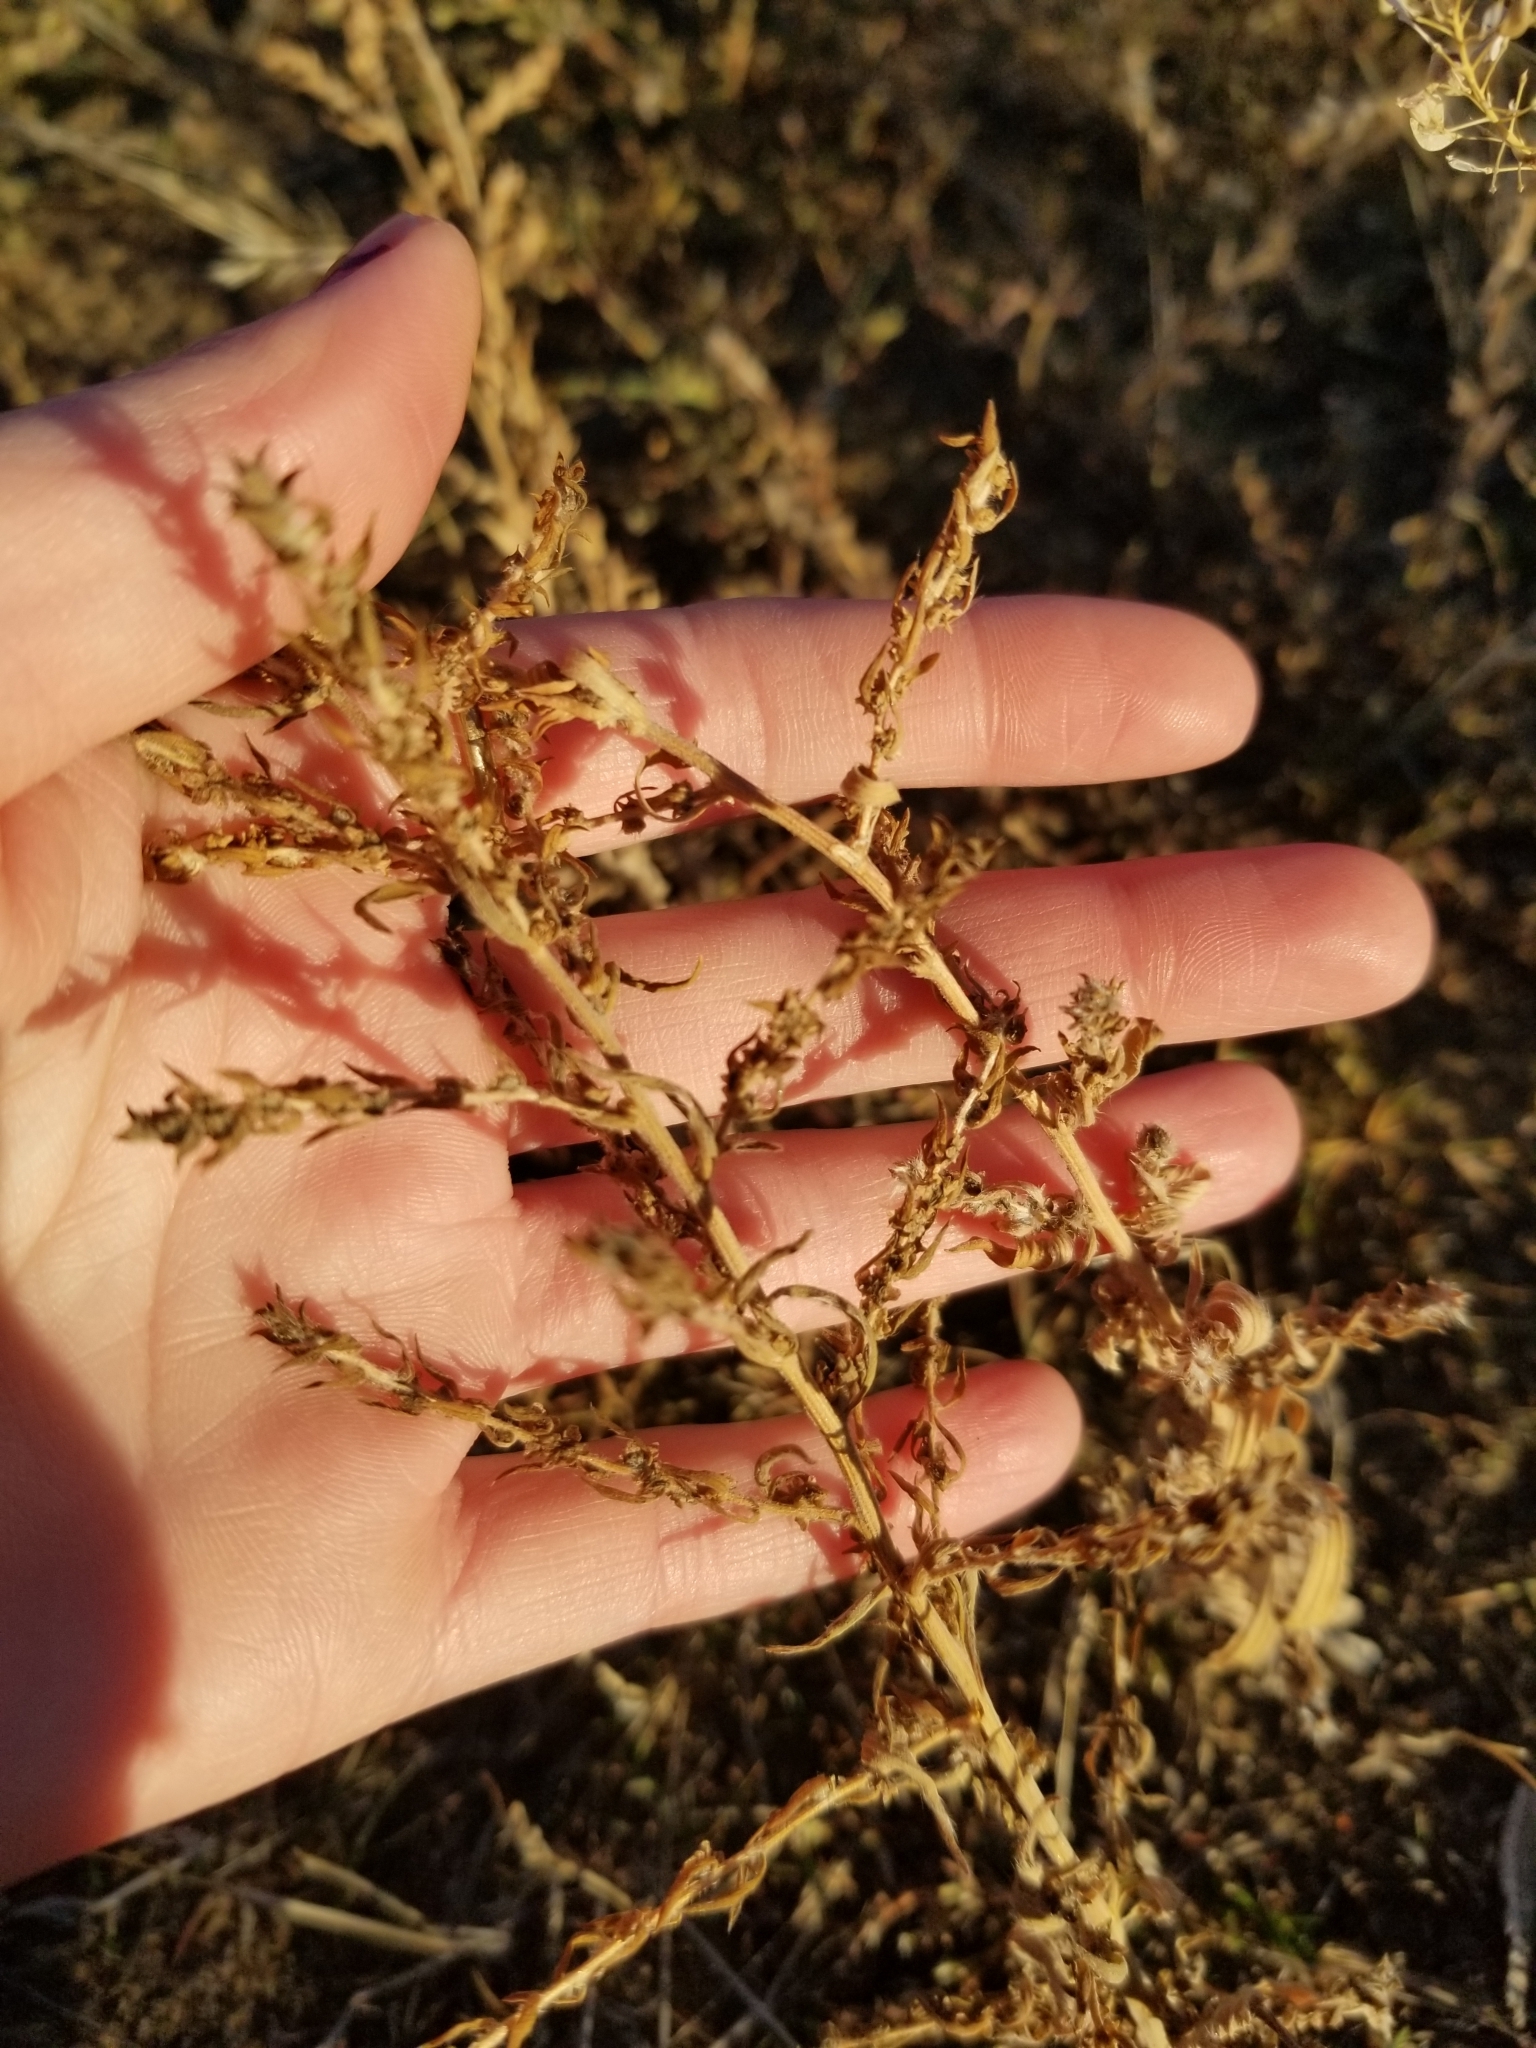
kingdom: Plantae
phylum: Tracheophyta
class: Magnoliopsida
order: Caryophyllales
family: Amaranthaceae
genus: Bassia
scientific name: Bassia scoparia
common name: Belvedere
